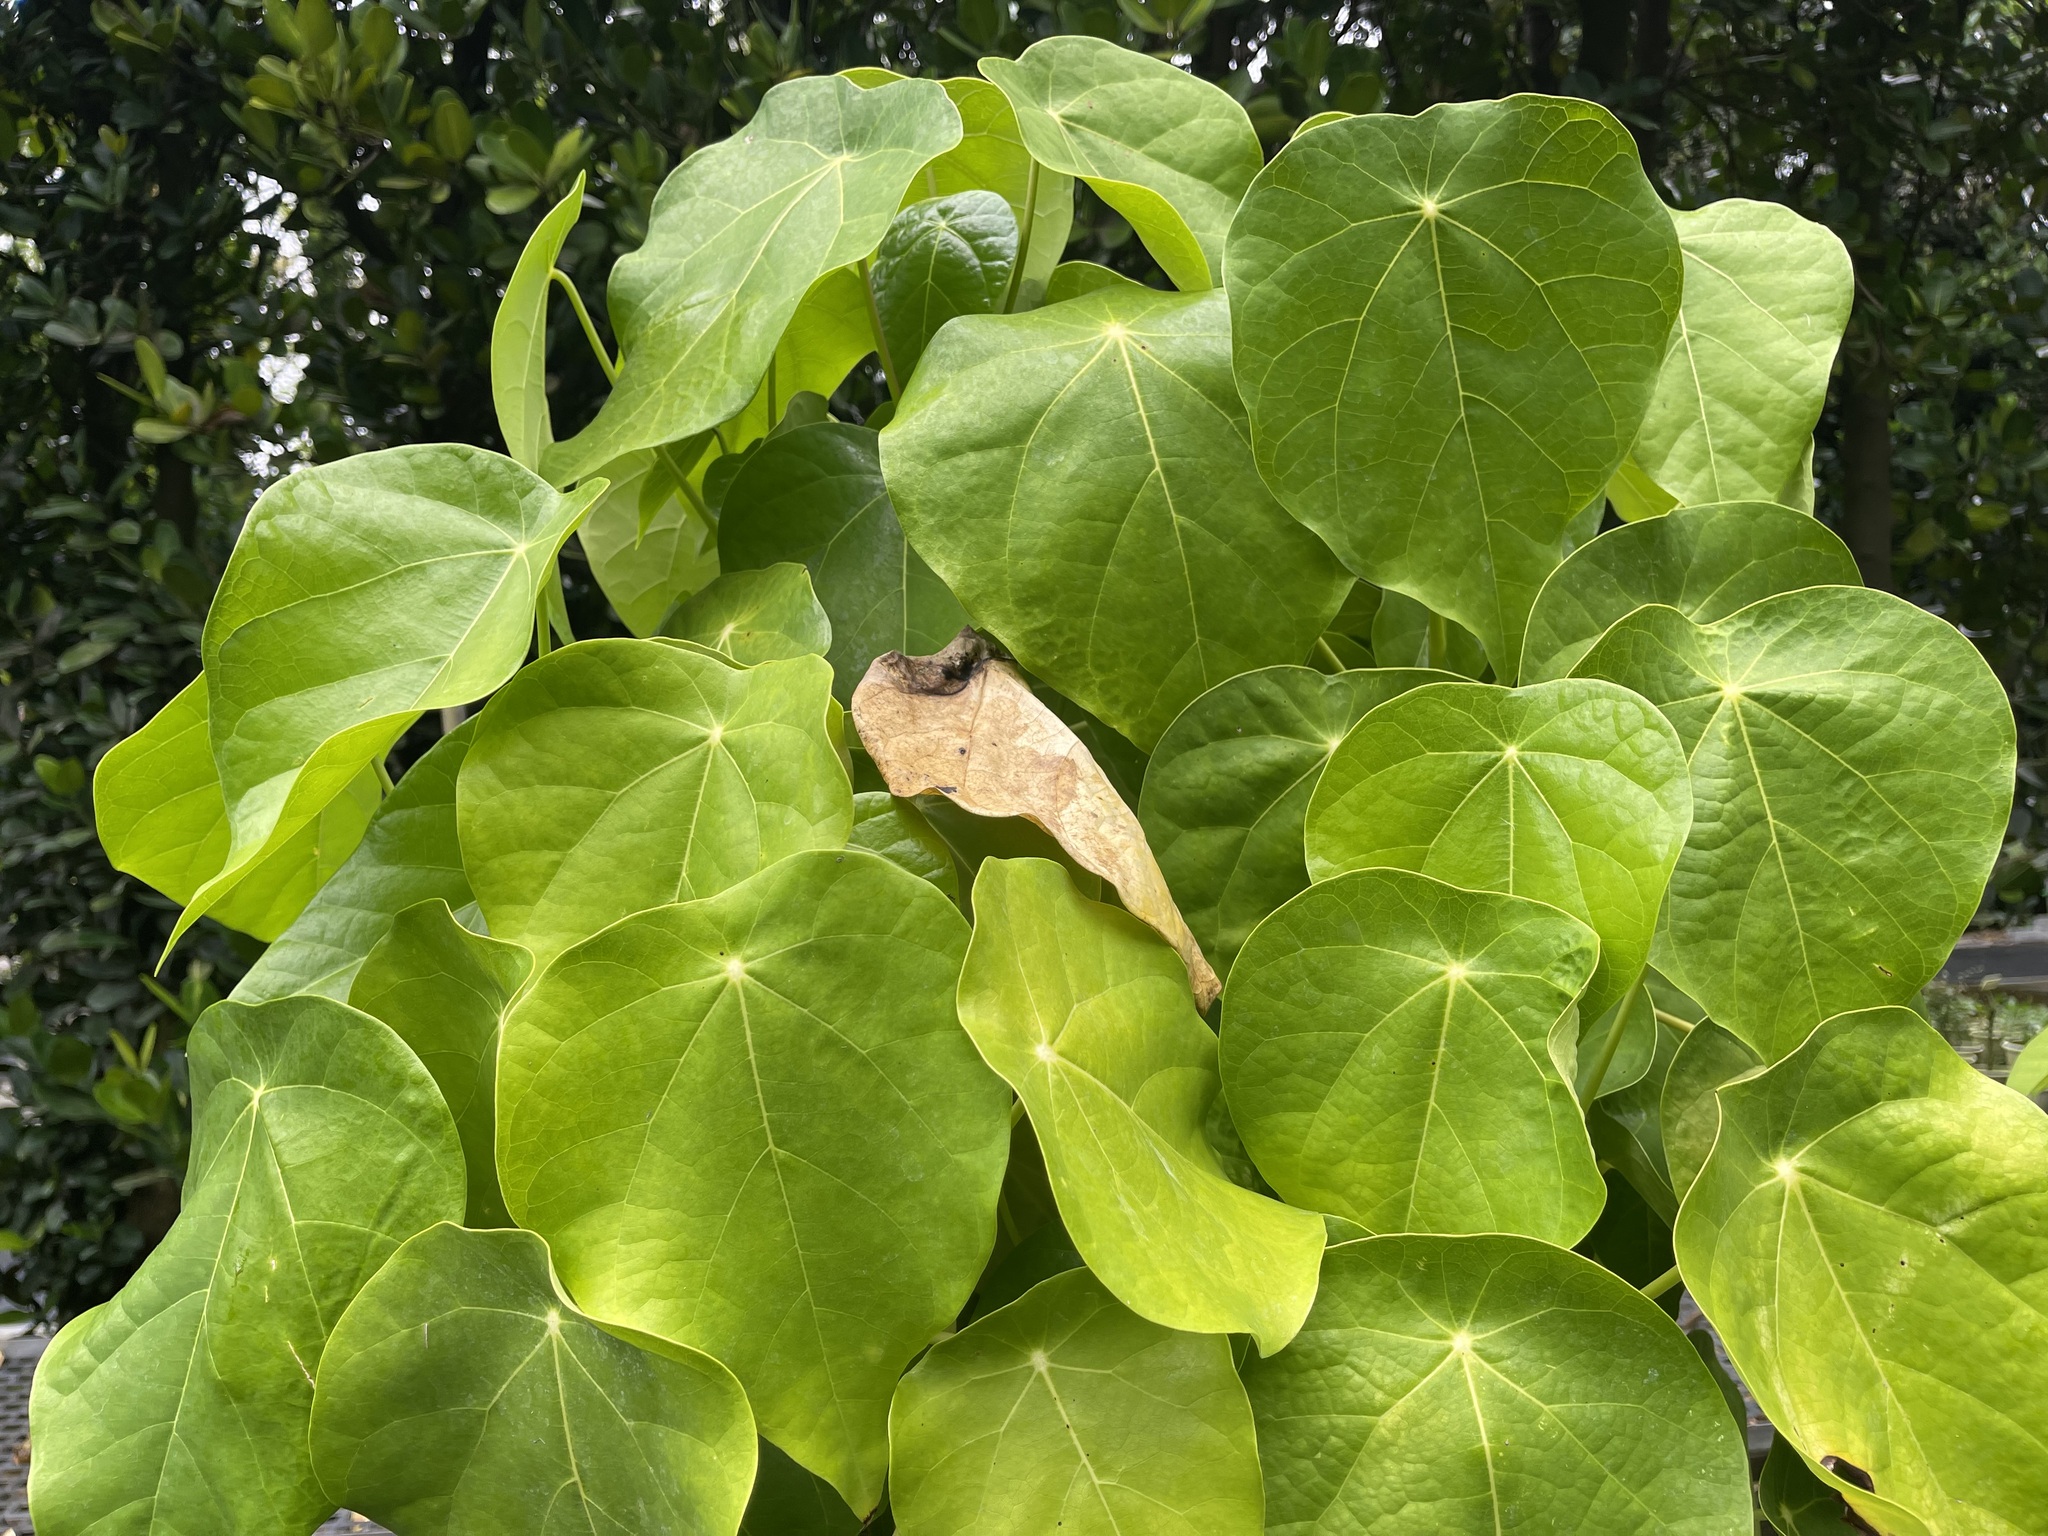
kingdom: Plantae
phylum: Tracheophyta
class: Magnoliopsida
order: Laurales
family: Hernandiaceae
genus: Hernandia
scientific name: Hernandia nymphaeifolia
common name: Sea hearse
